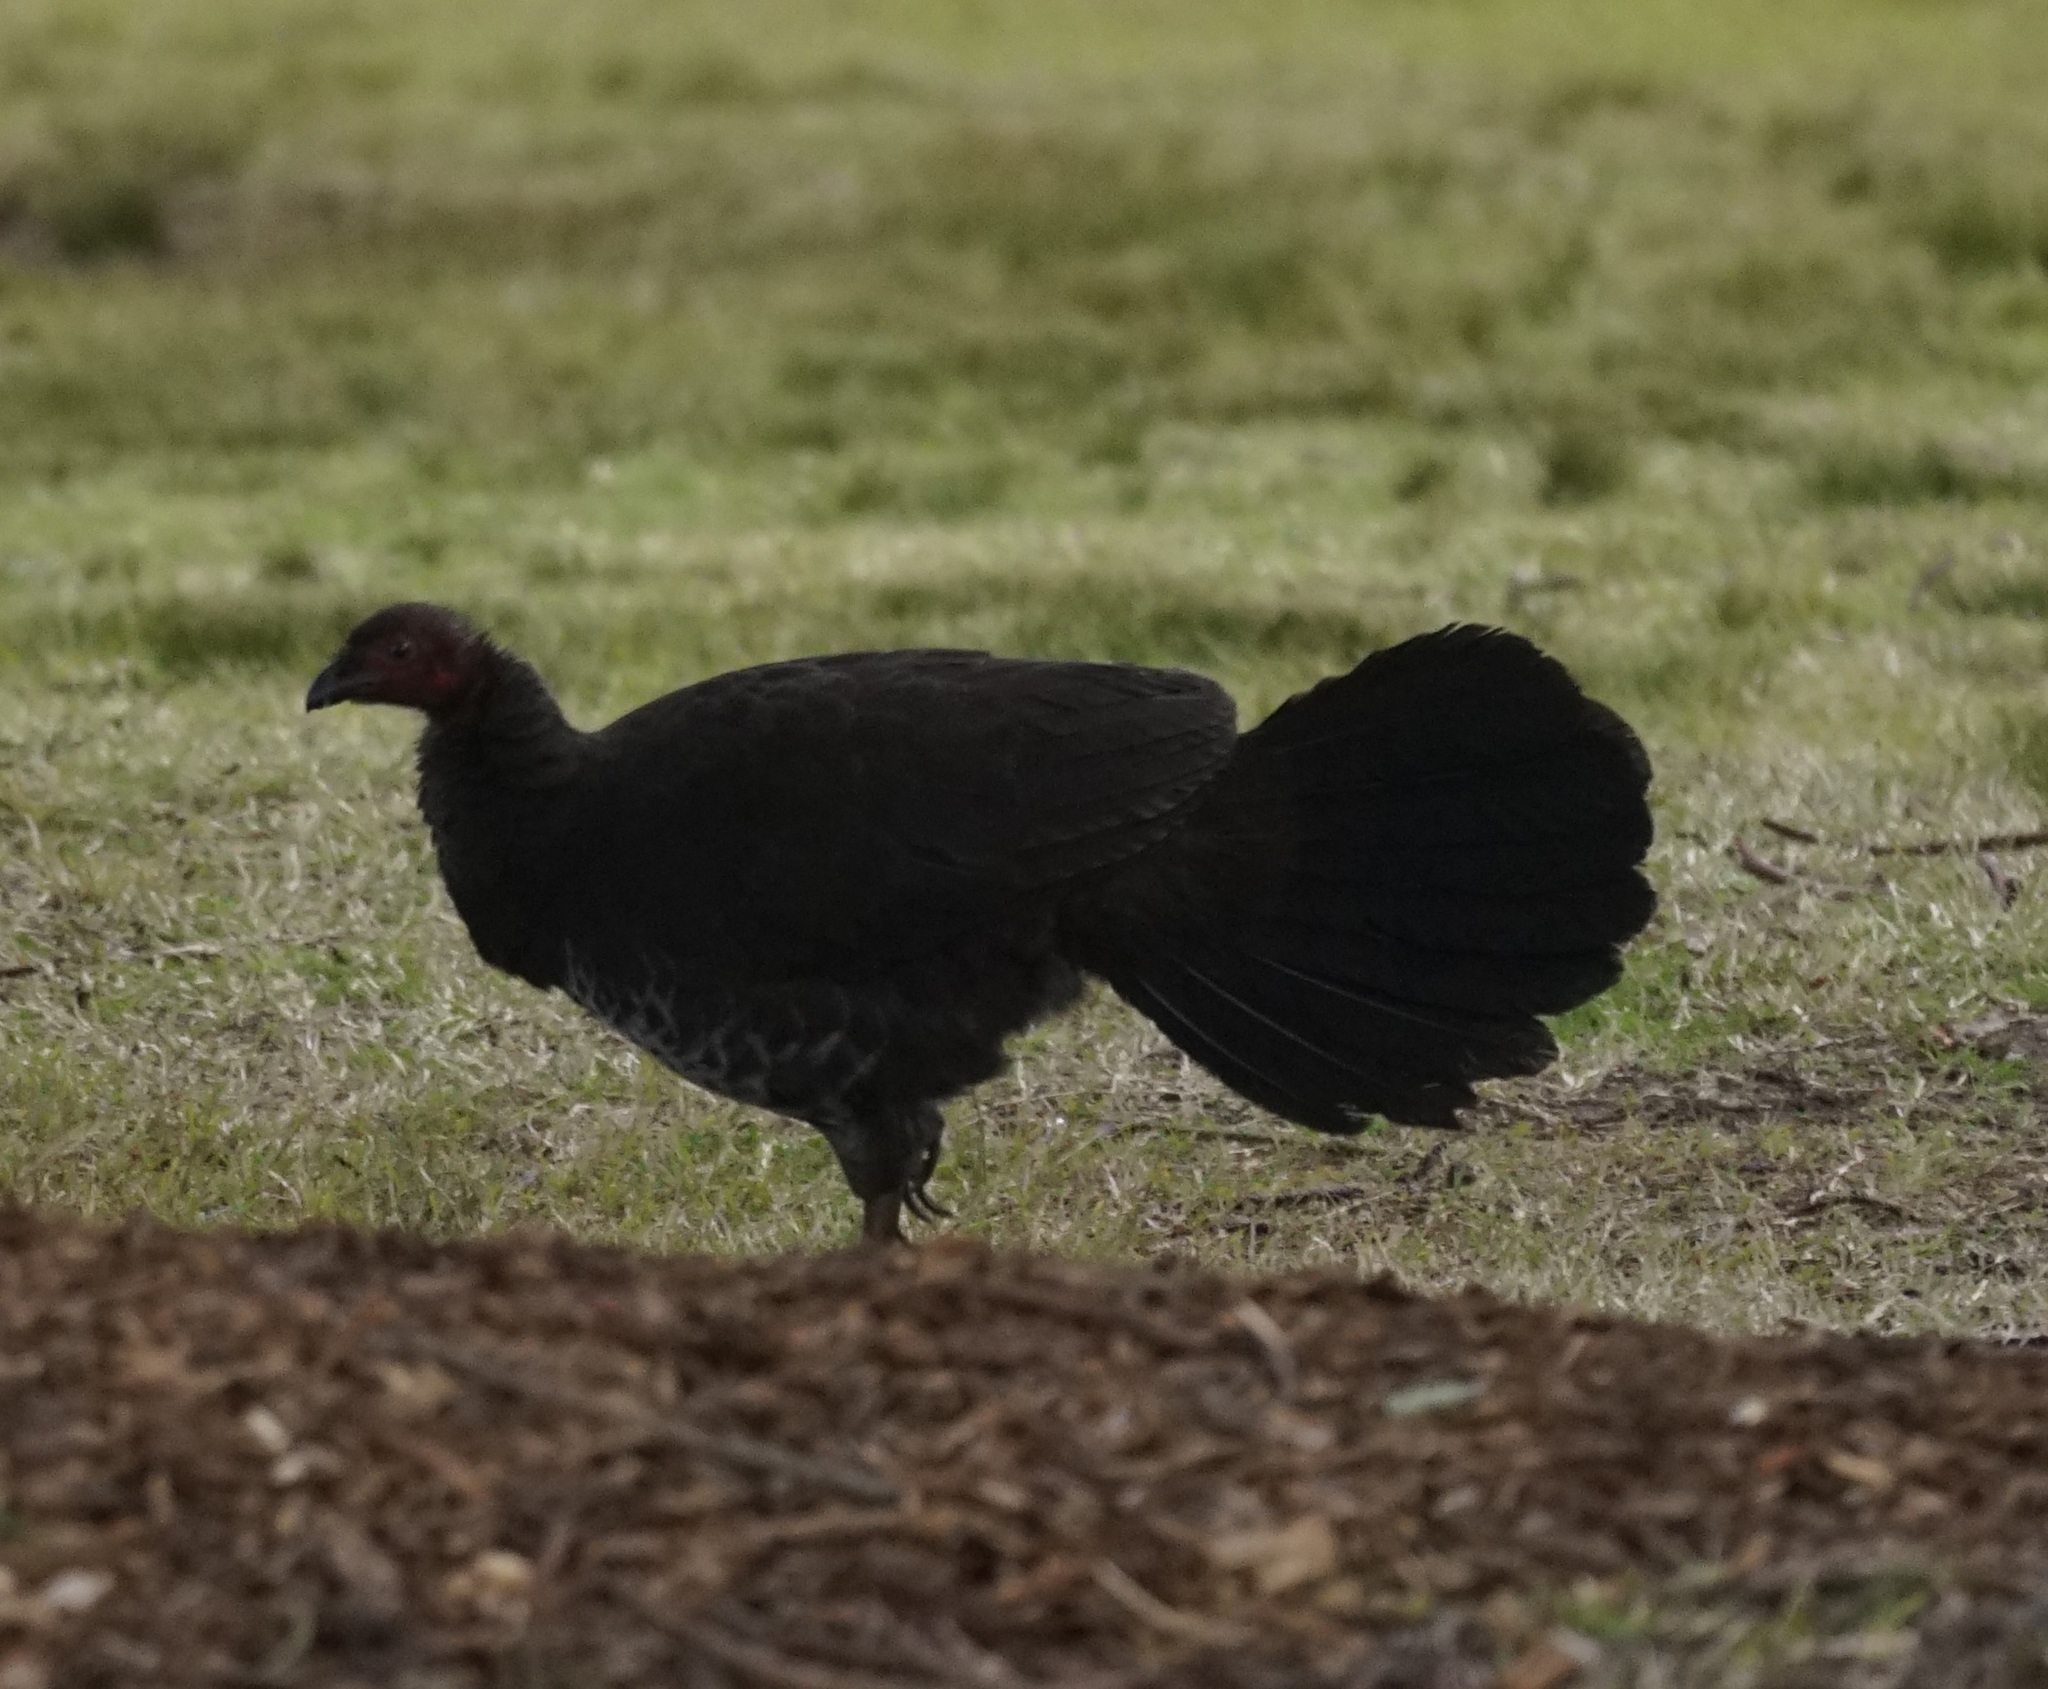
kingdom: Animalia
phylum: Chordata
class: Aves
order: Galliformes
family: Megapodiidae
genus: Alectura
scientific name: Alectura lathami
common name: Australian brushturkey
